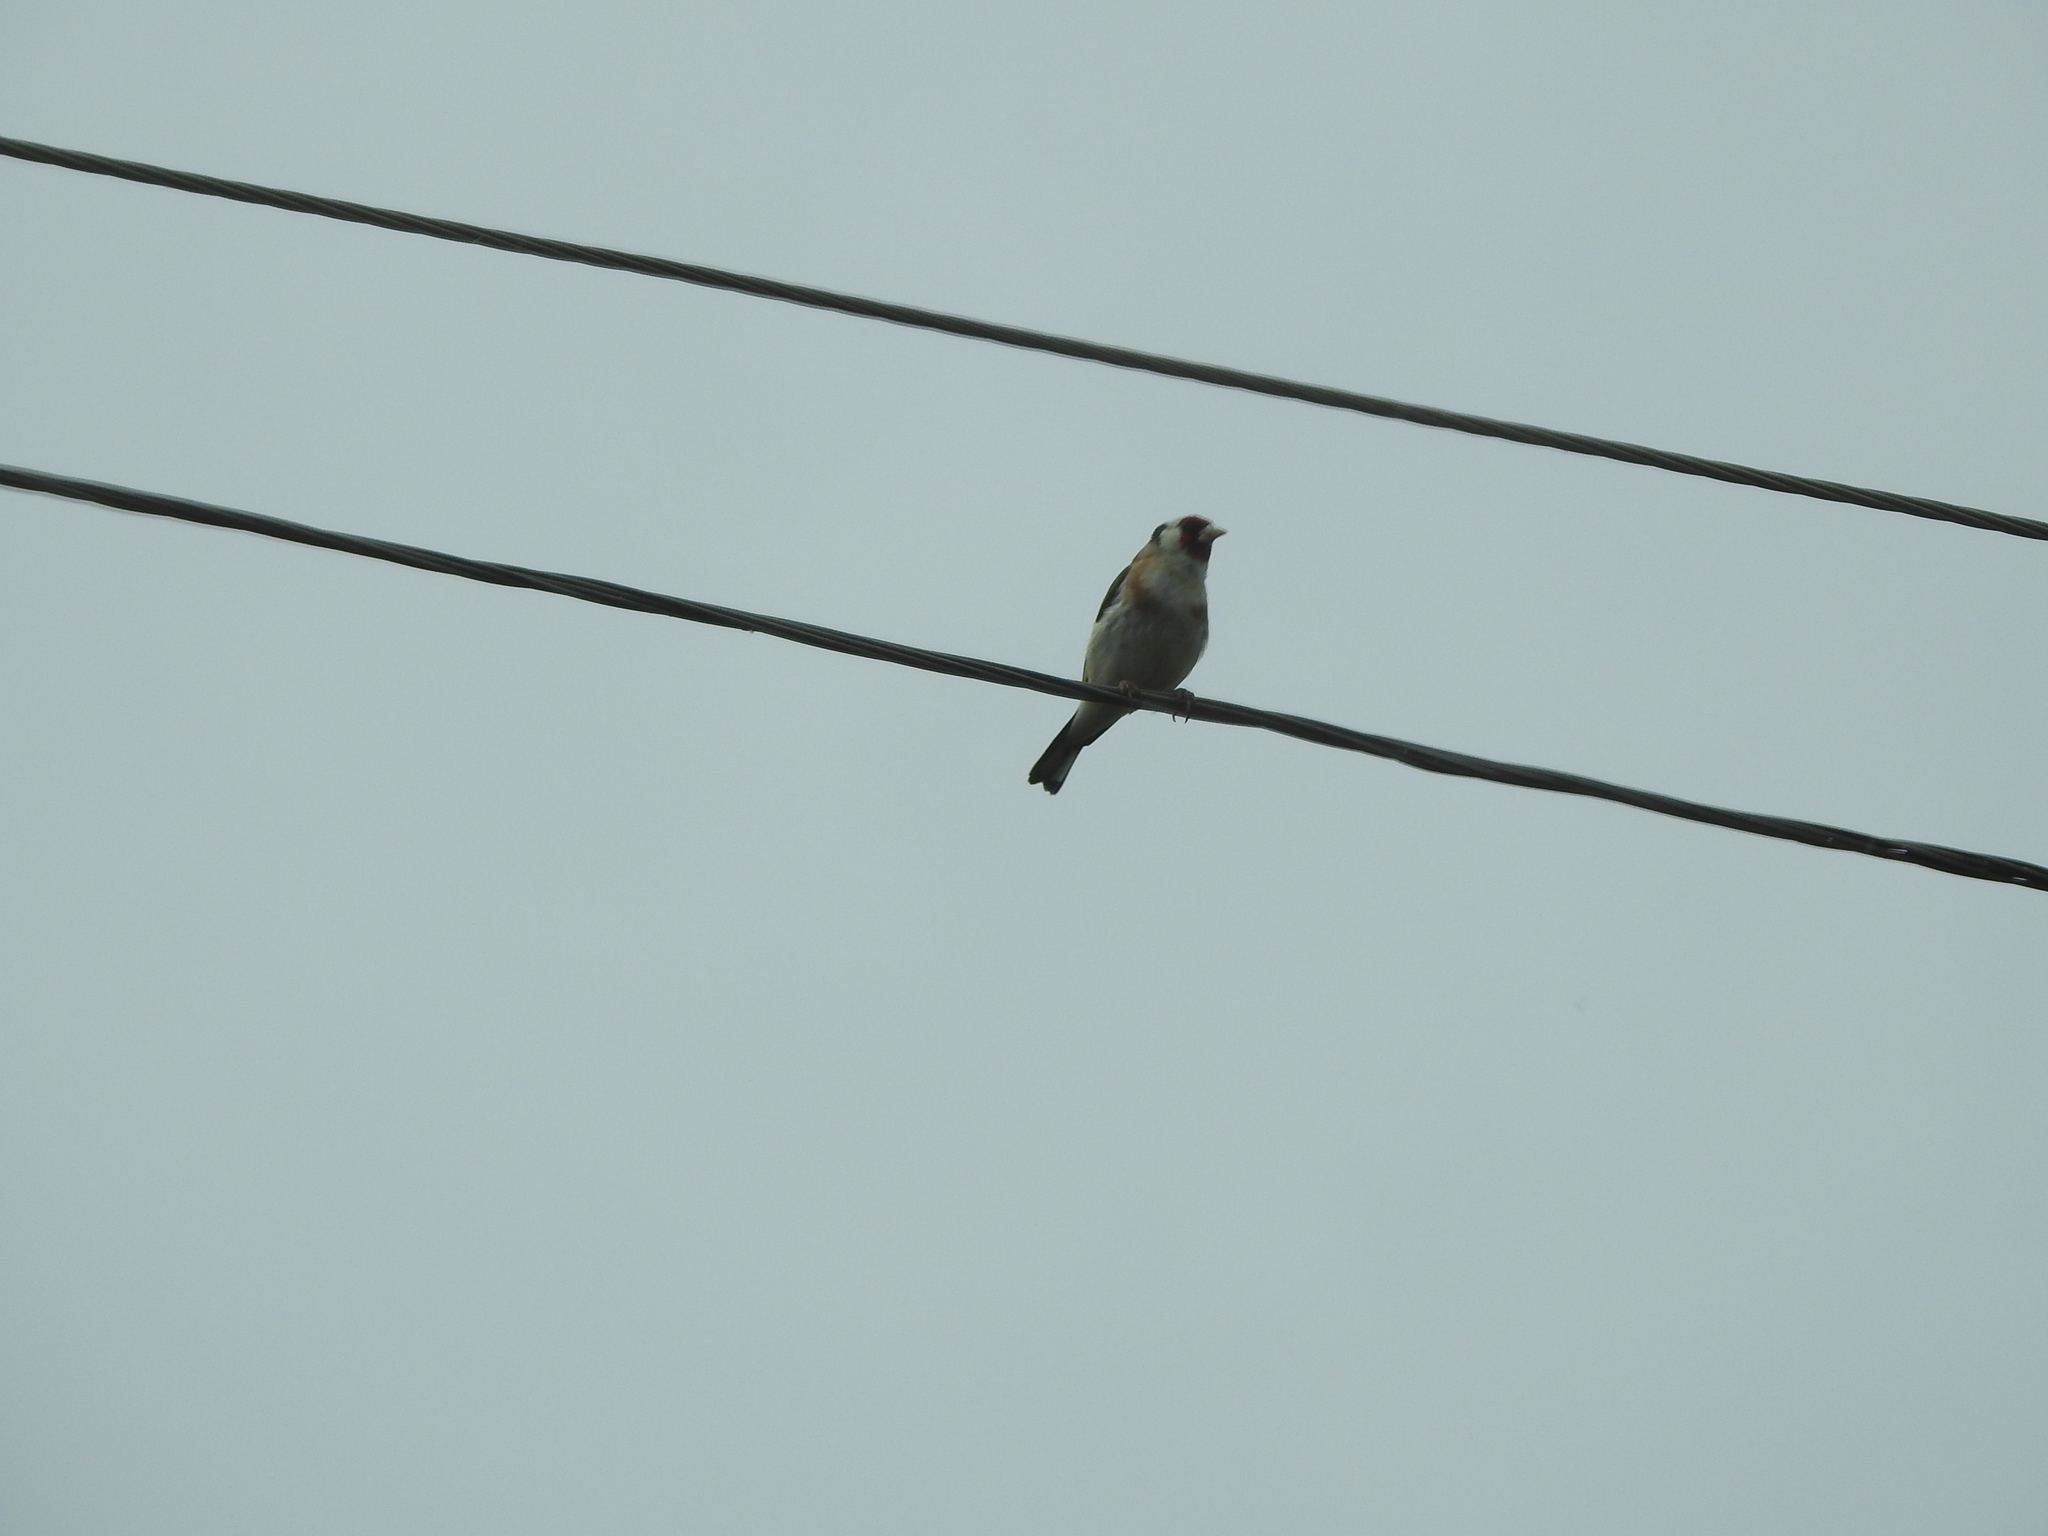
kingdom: Animalia
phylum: Chordata
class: Aves
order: Passeriformes
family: Fringillidae
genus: Carduelis
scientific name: Carduelis carduelis
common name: European goldfinch
